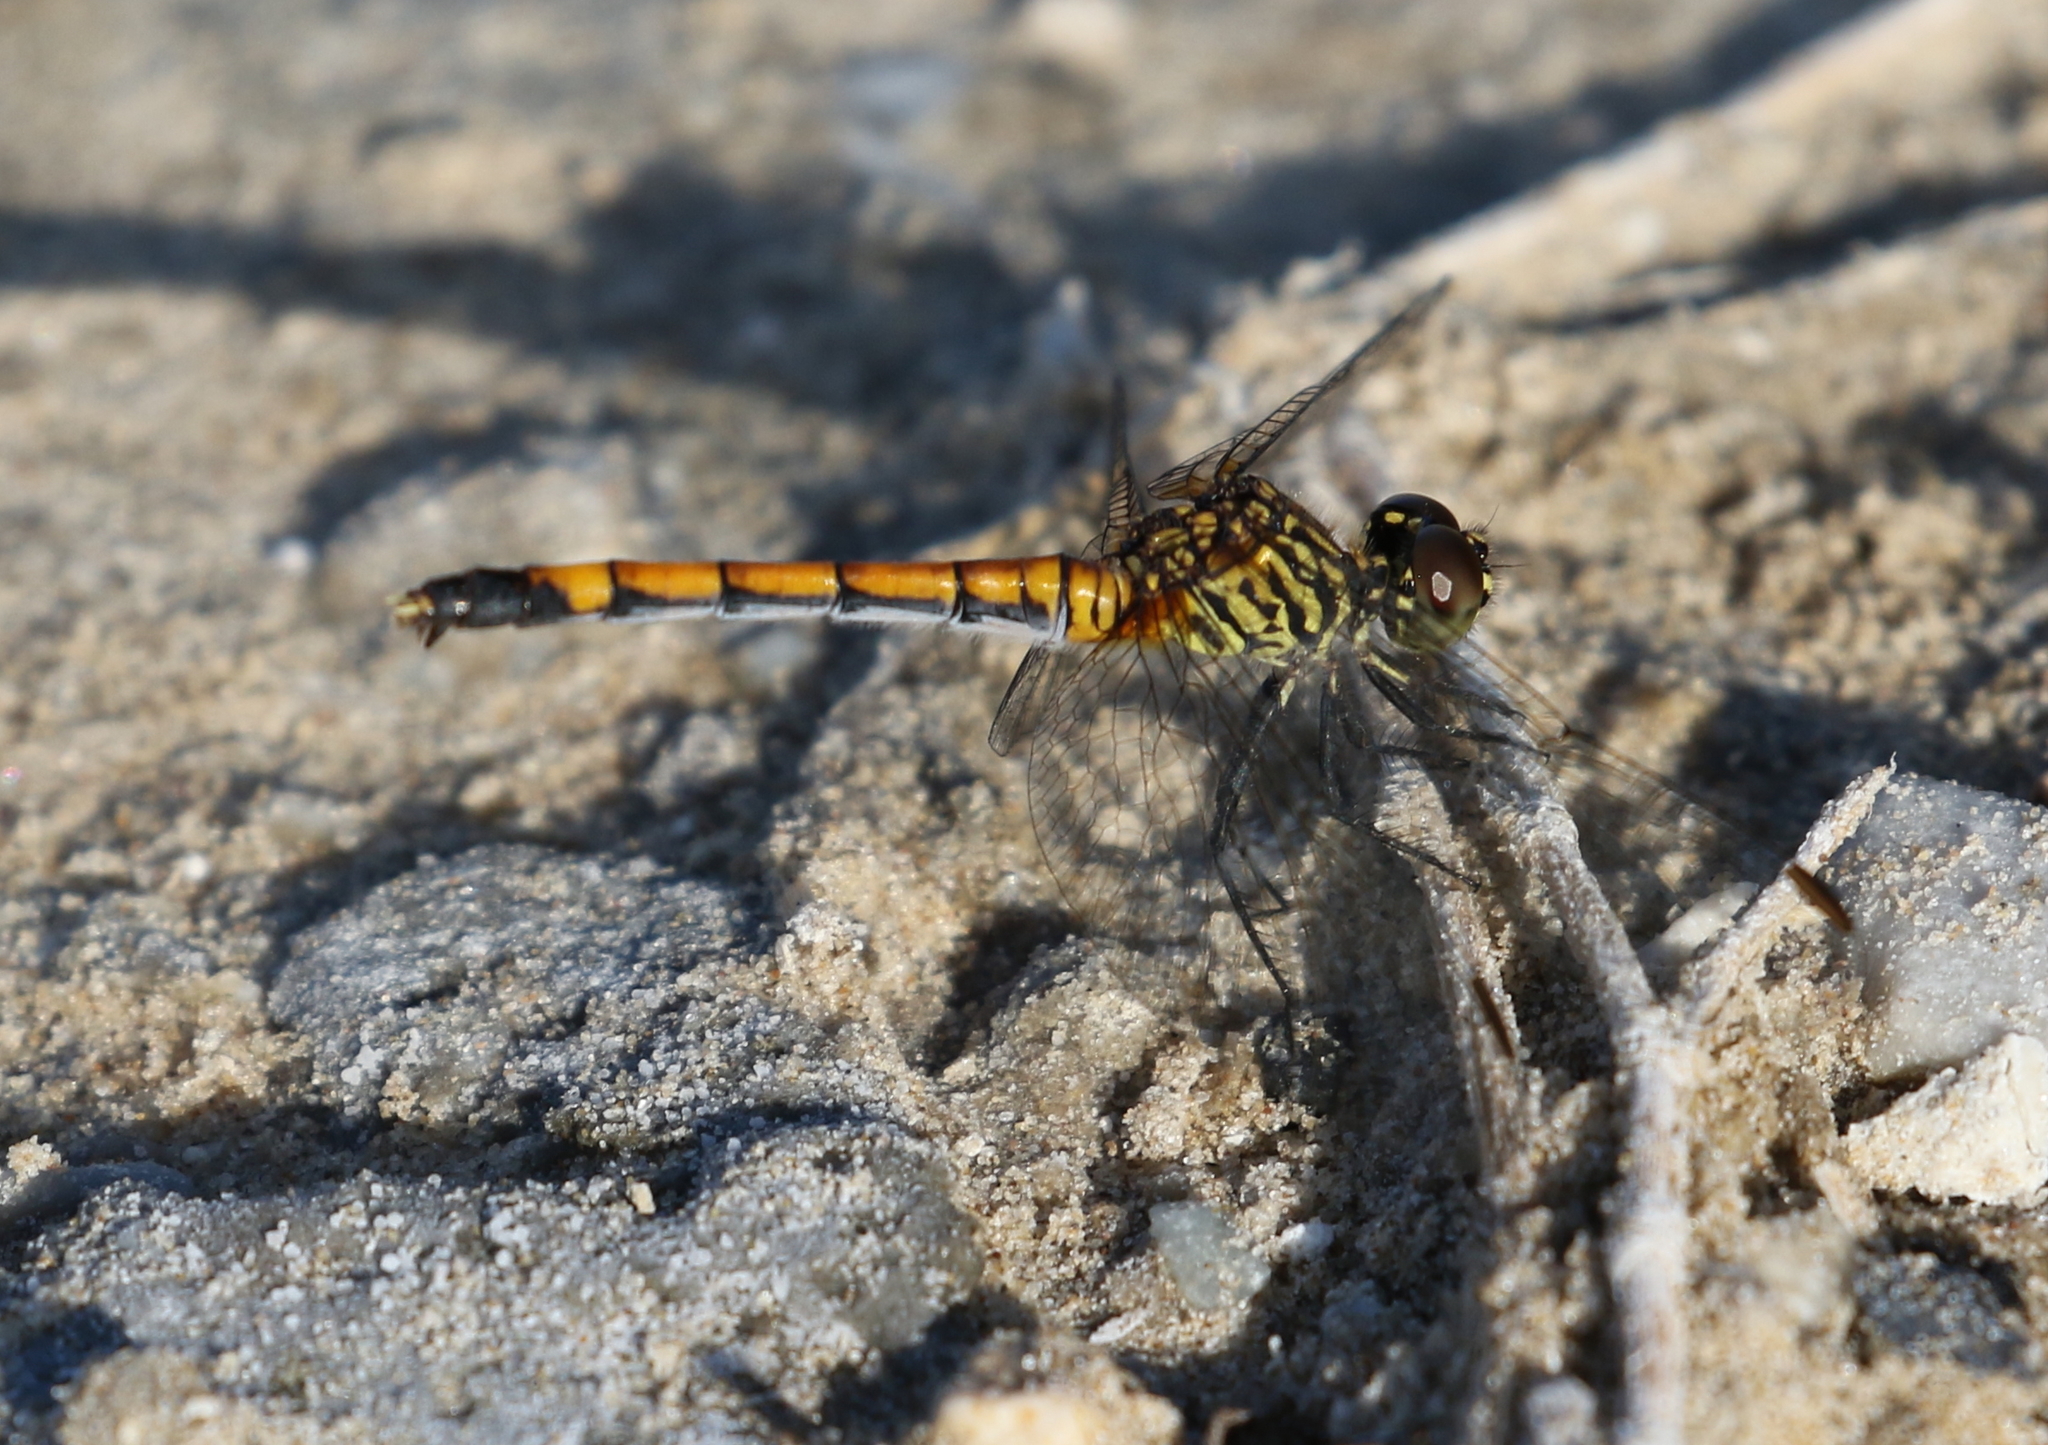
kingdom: Animalia
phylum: Arthropoda
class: Insecta
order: Odonata
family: Libellulidae
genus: Erythrodiplax
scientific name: Erythrodiplax berenice
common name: Seaside dragonlet
